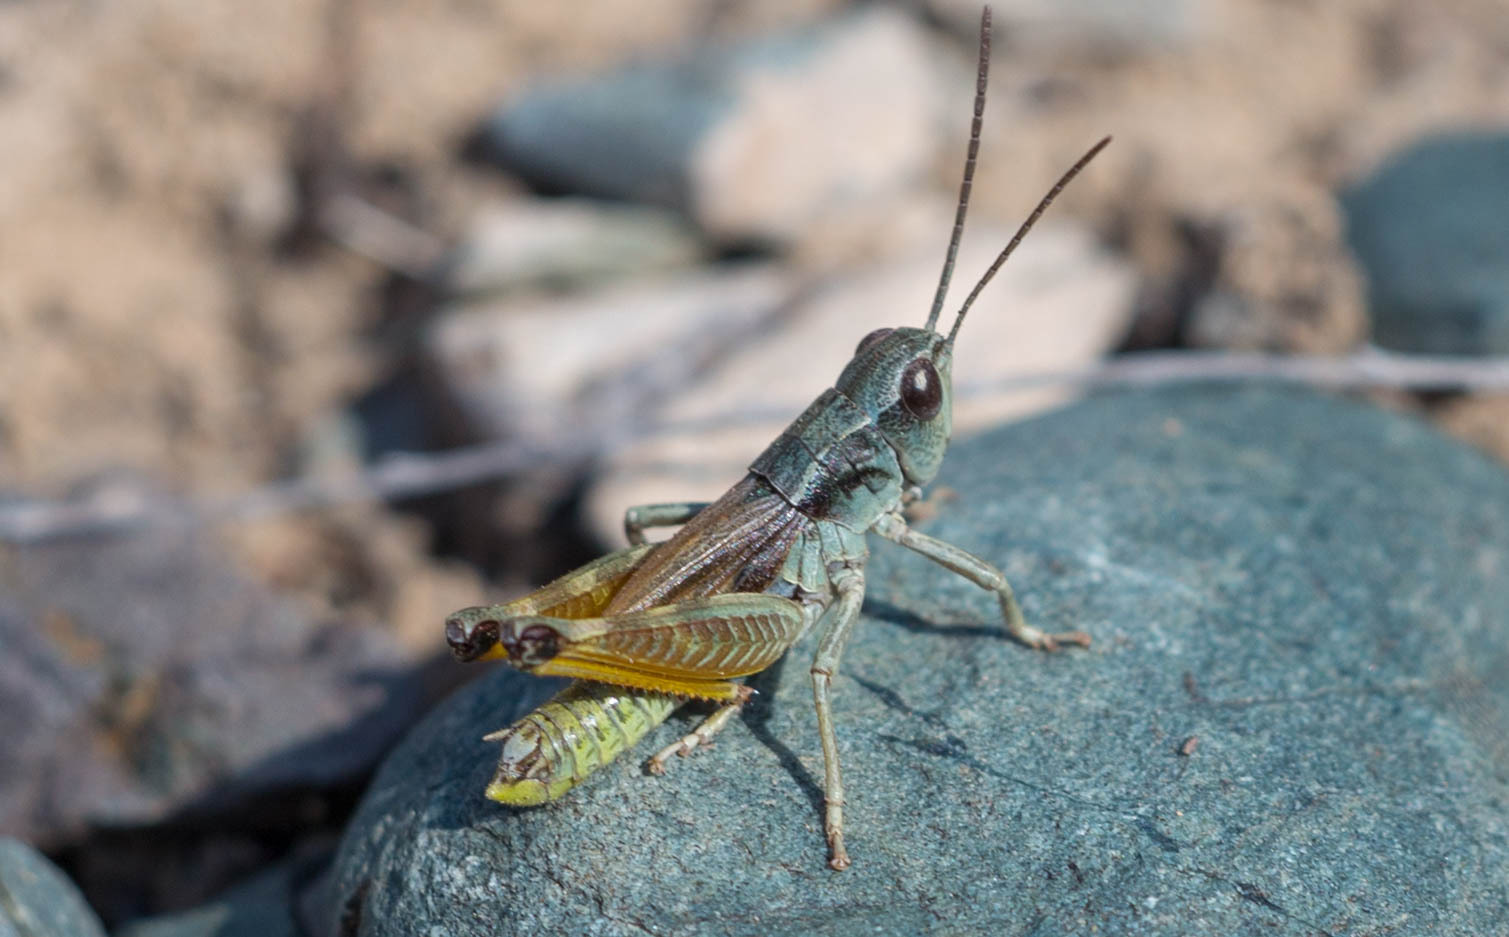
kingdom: Animalia
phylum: Arthropoda
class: Insecta
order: Orthoptera
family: Acrididae
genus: Podismopsis
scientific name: Podismopsis altaica
